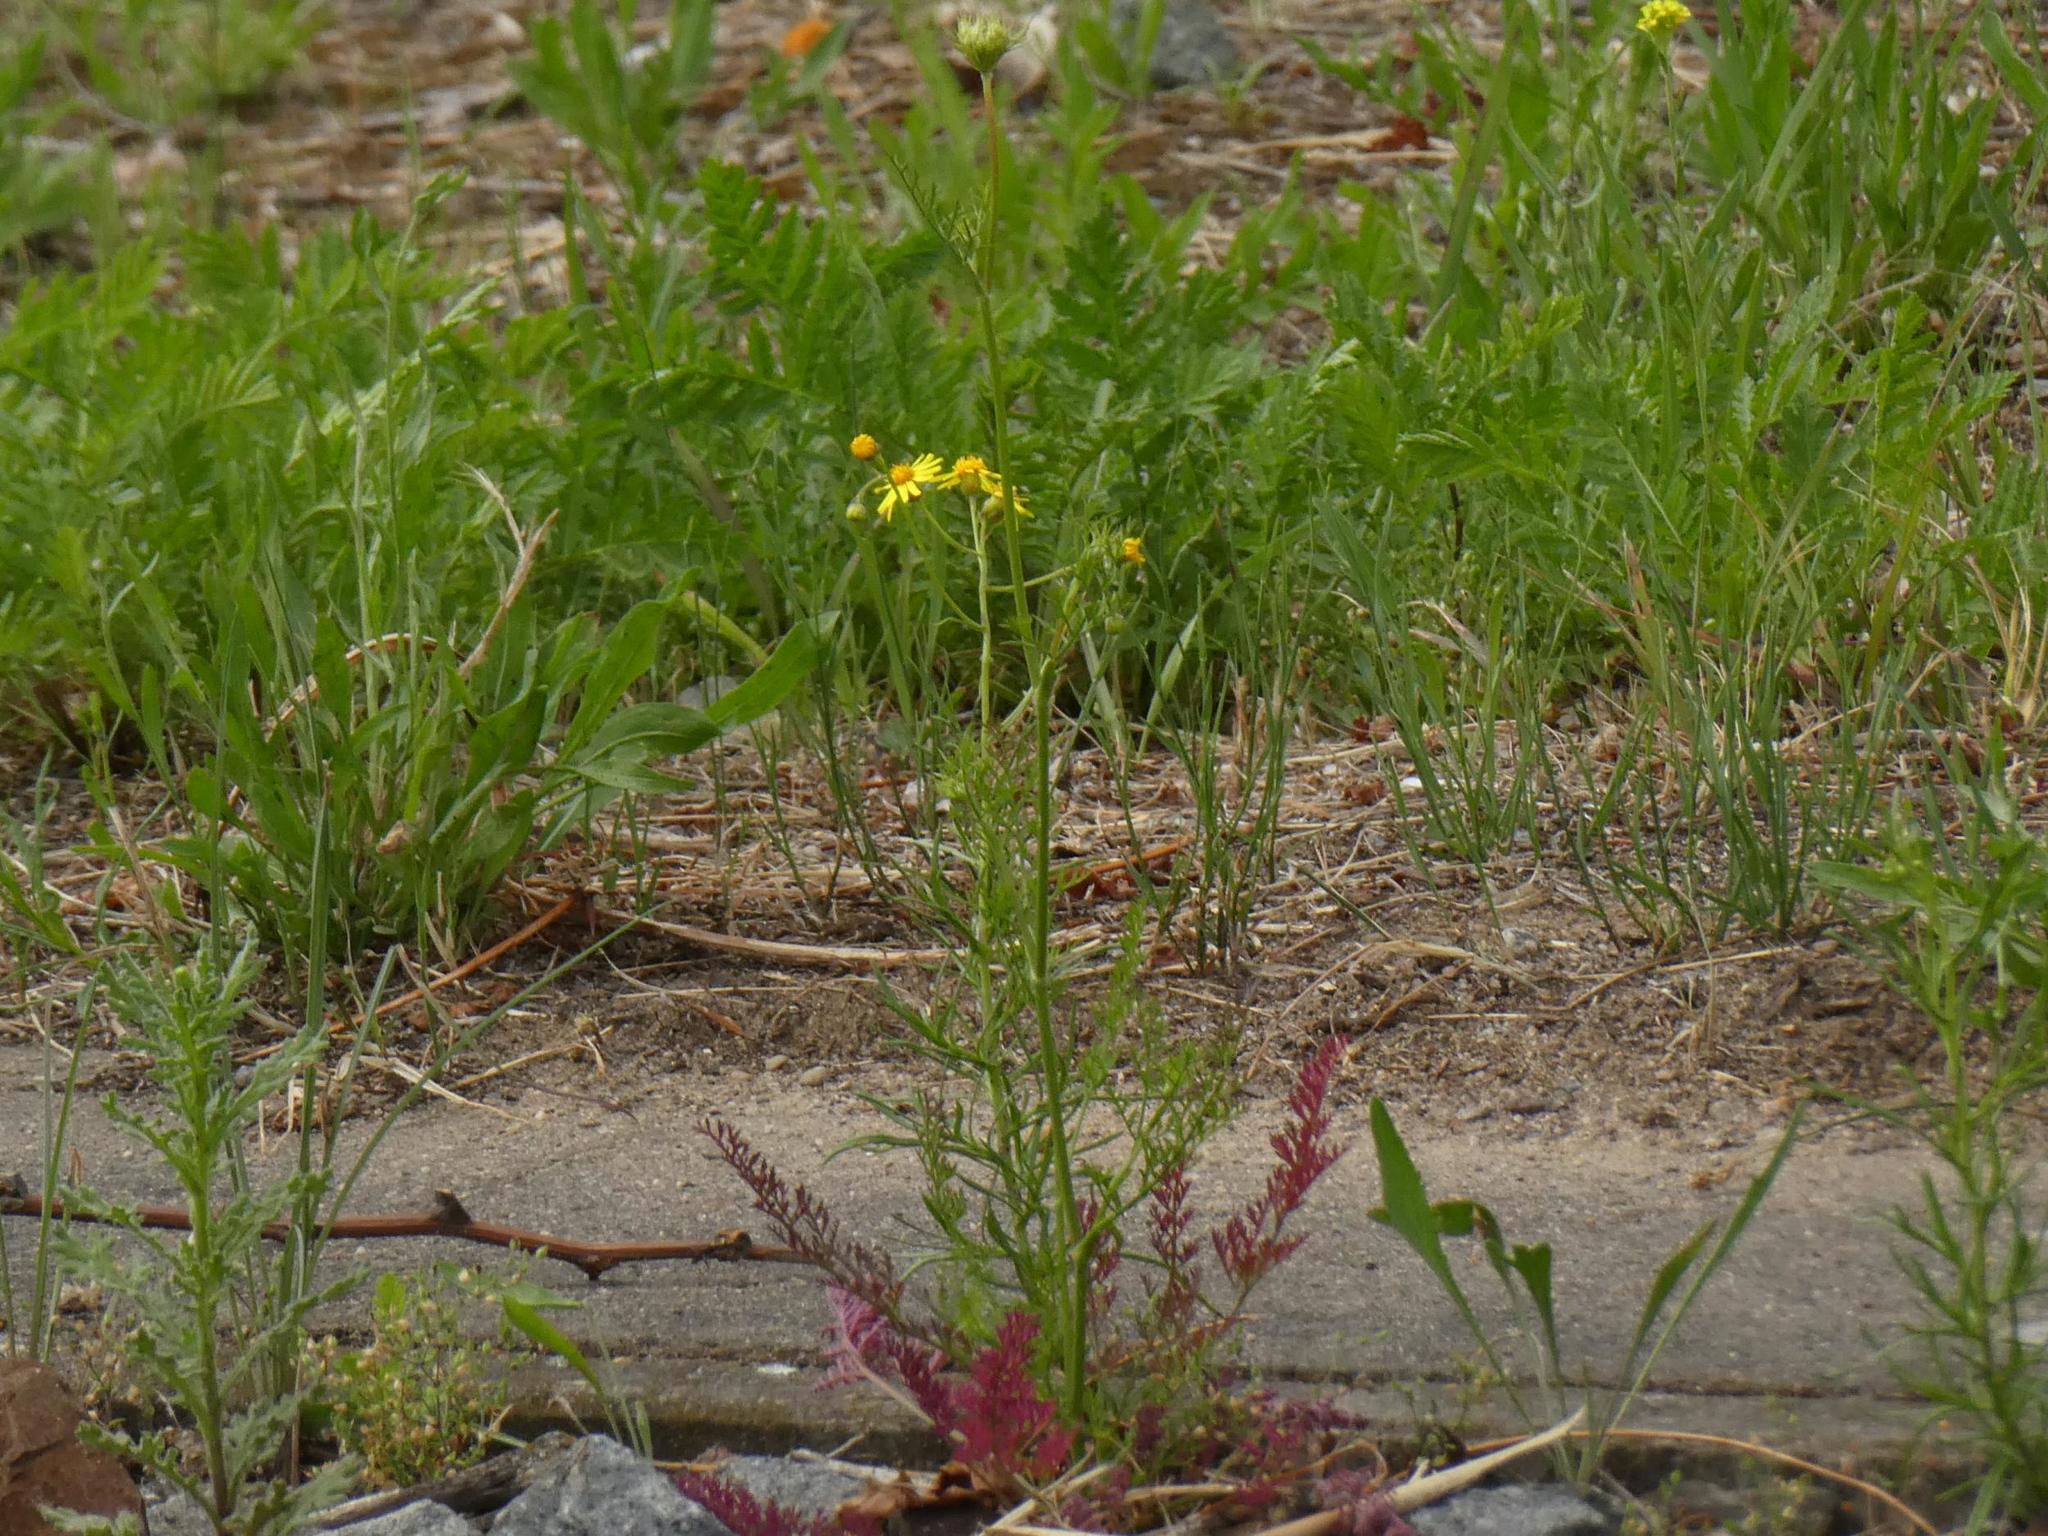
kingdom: Plantae
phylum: Tracheophyta
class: Magnoliopsida
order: Asterales
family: Asteraceae
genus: Senecio
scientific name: Senecio vernalis
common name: Eastern groundsel
